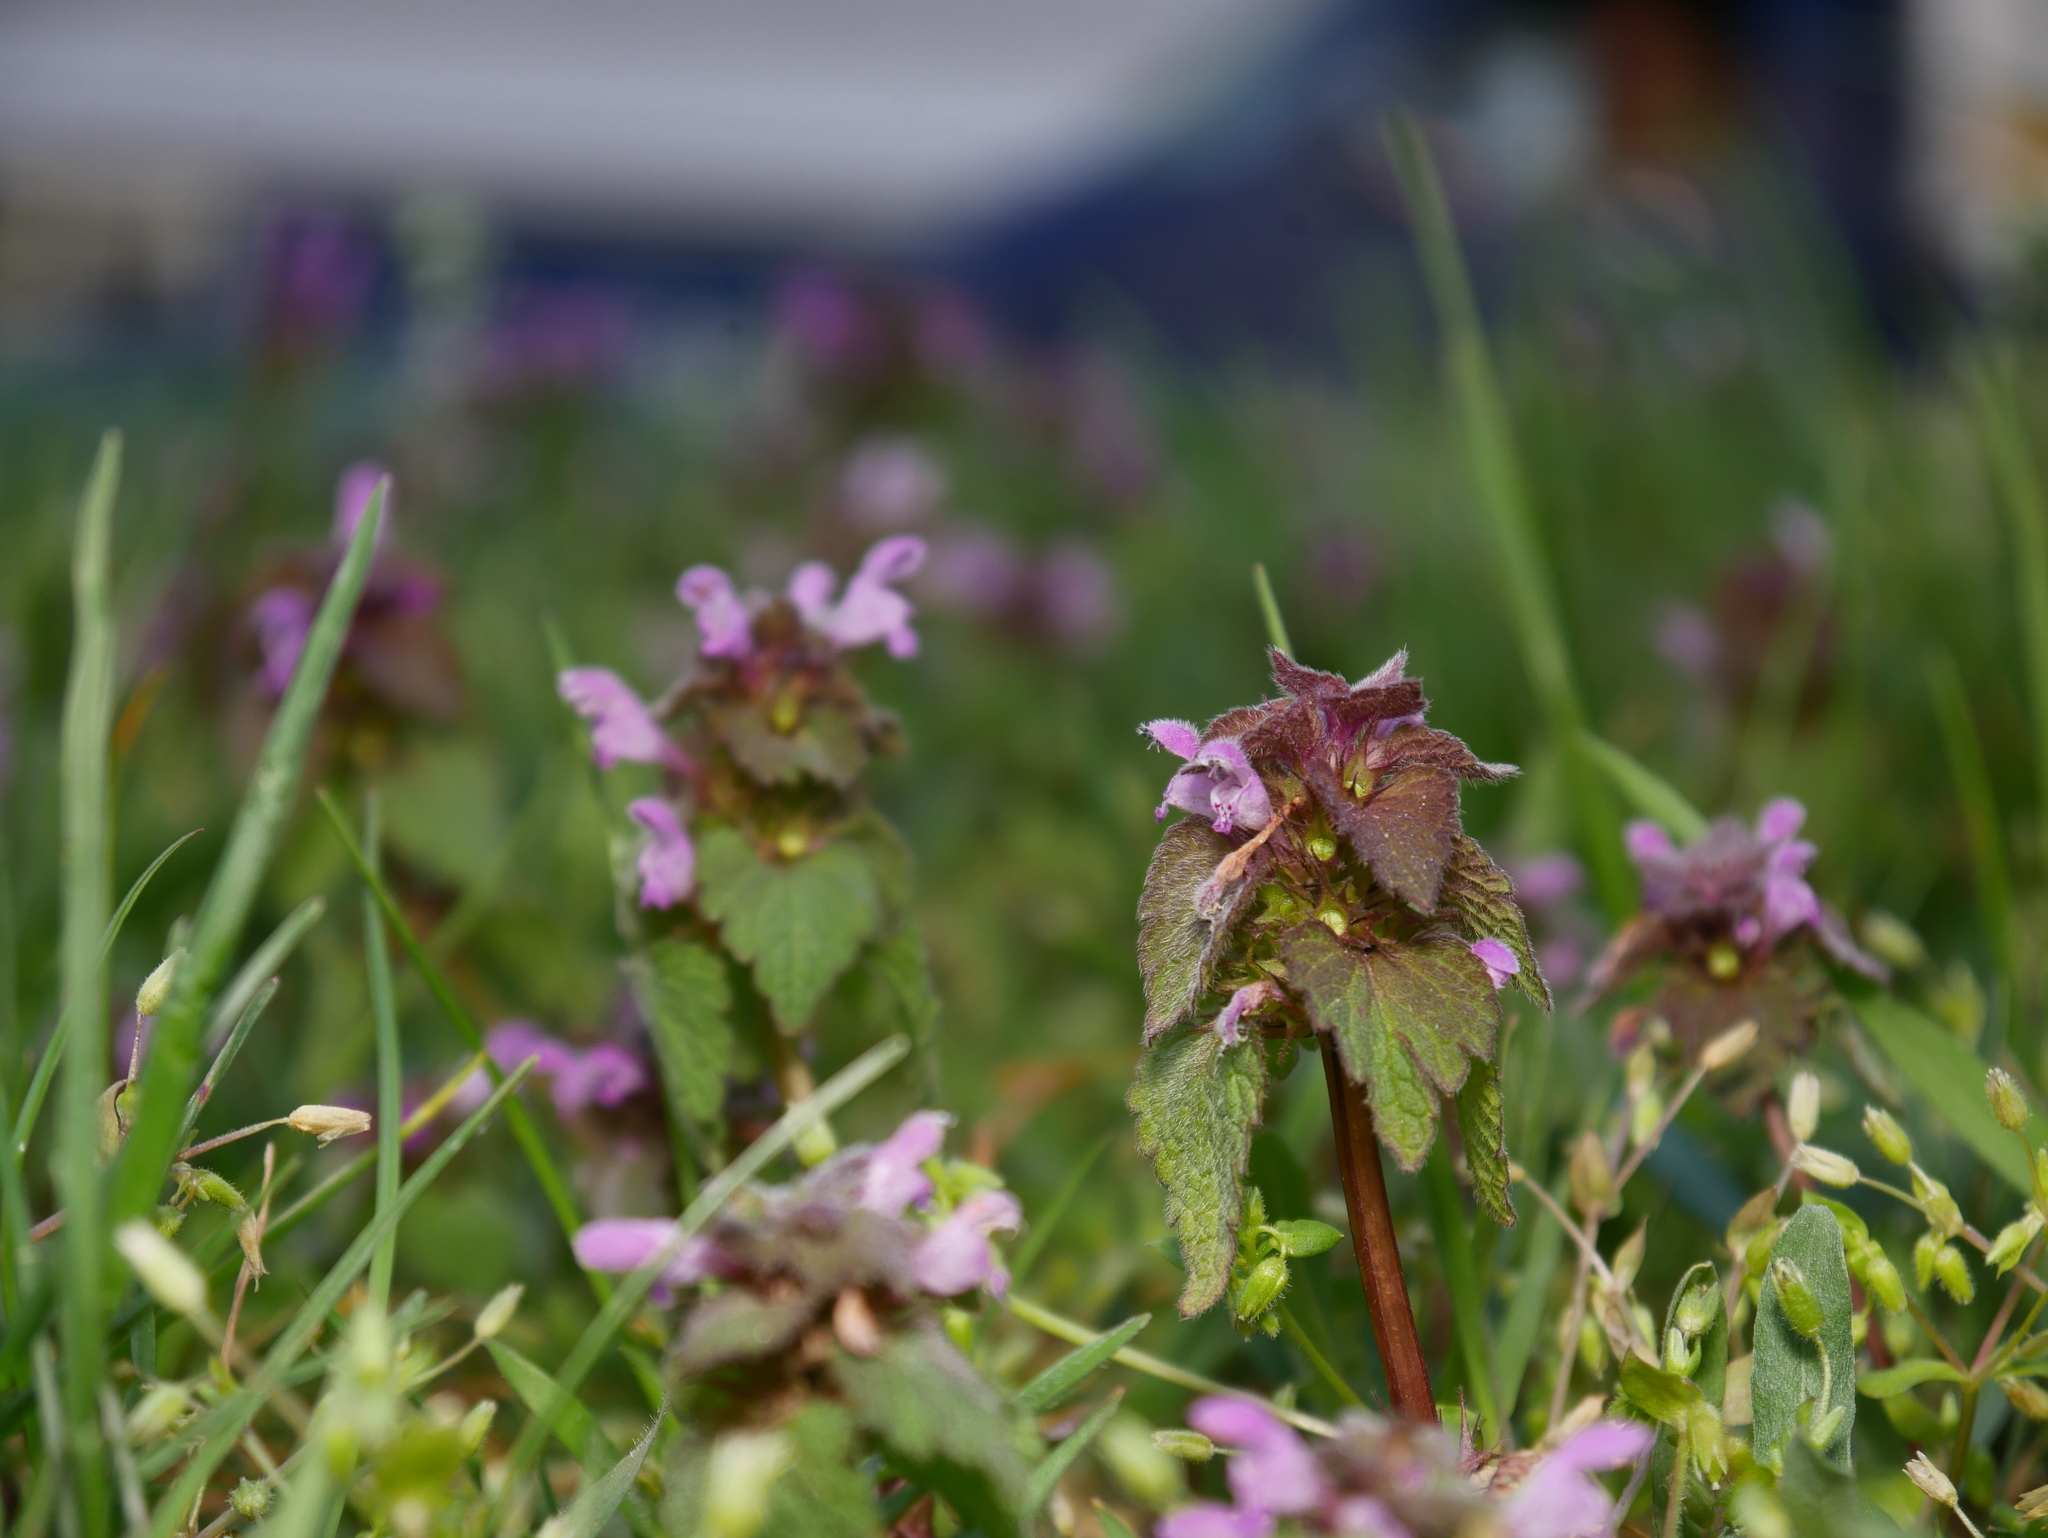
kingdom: Plantae
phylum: Tracheophyta
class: Magnoliopsida
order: Lamiales
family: Lamiaceae
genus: Lamium
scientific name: Lamium purpureum
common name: Red dead-nettle
